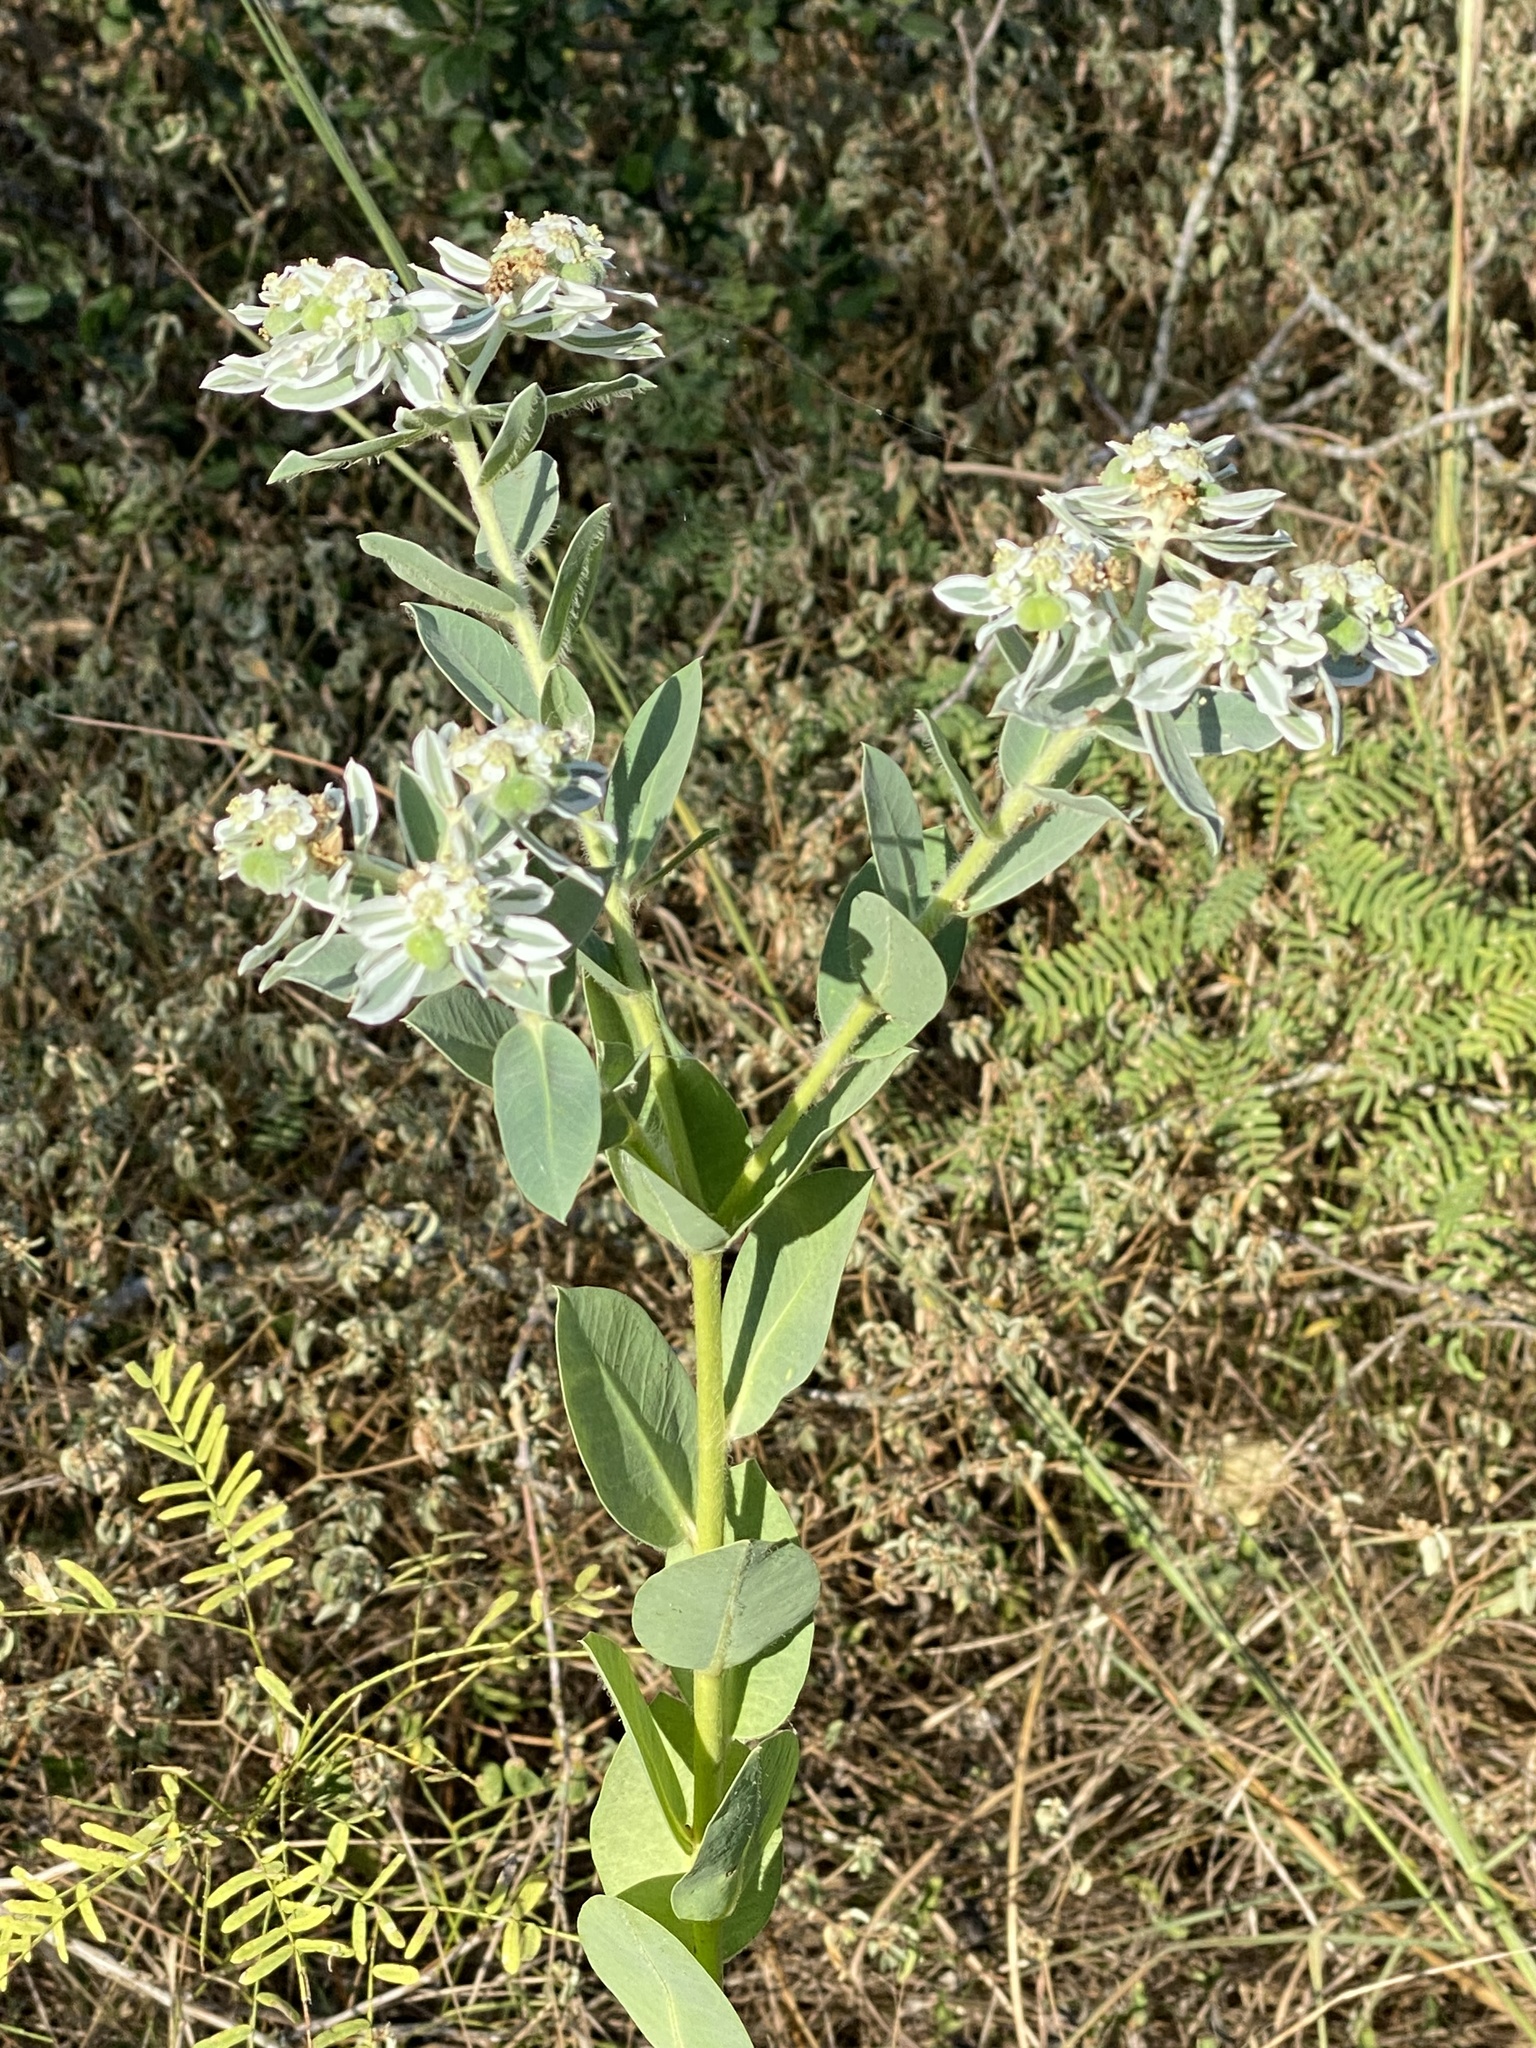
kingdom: Plantae
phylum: Tracheophyta
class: Magnoliopsida
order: Malpighiales
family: Euphorbiaceae
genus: Euphorbia
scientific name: Euphorbia marginata
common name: Ghostweed
